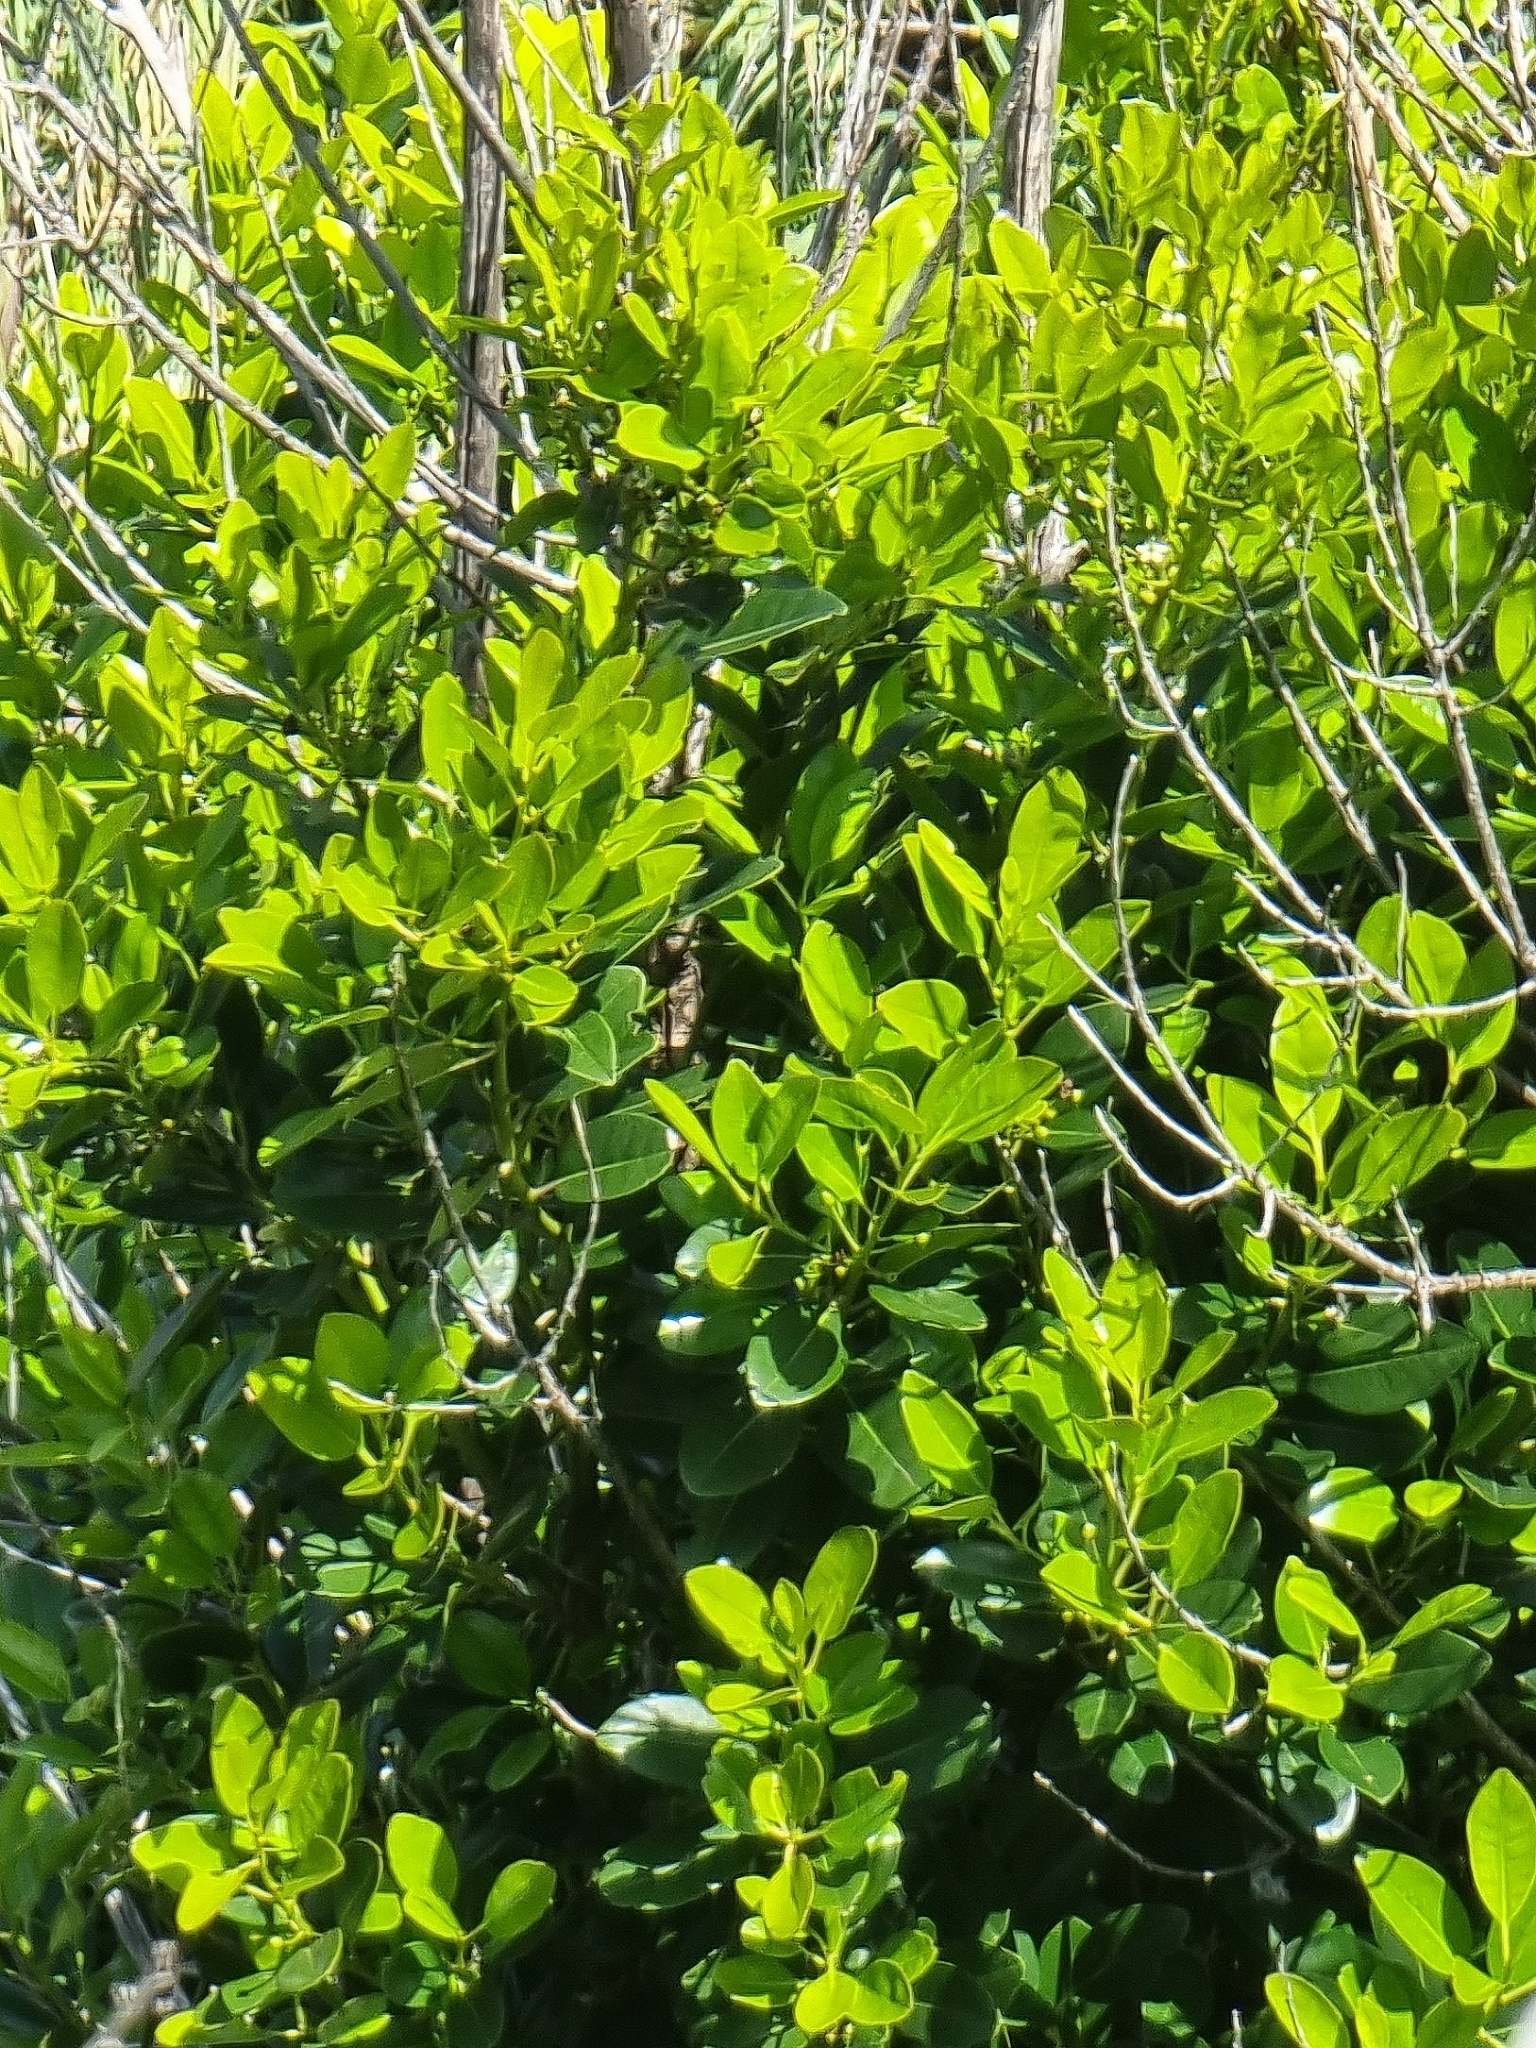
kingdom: Plantae
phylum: Tracheophyta
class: Magnoliopsida
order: Aquifoliales
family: Aquifoliaceae
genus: Ilex
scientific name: Ilex canariensis
